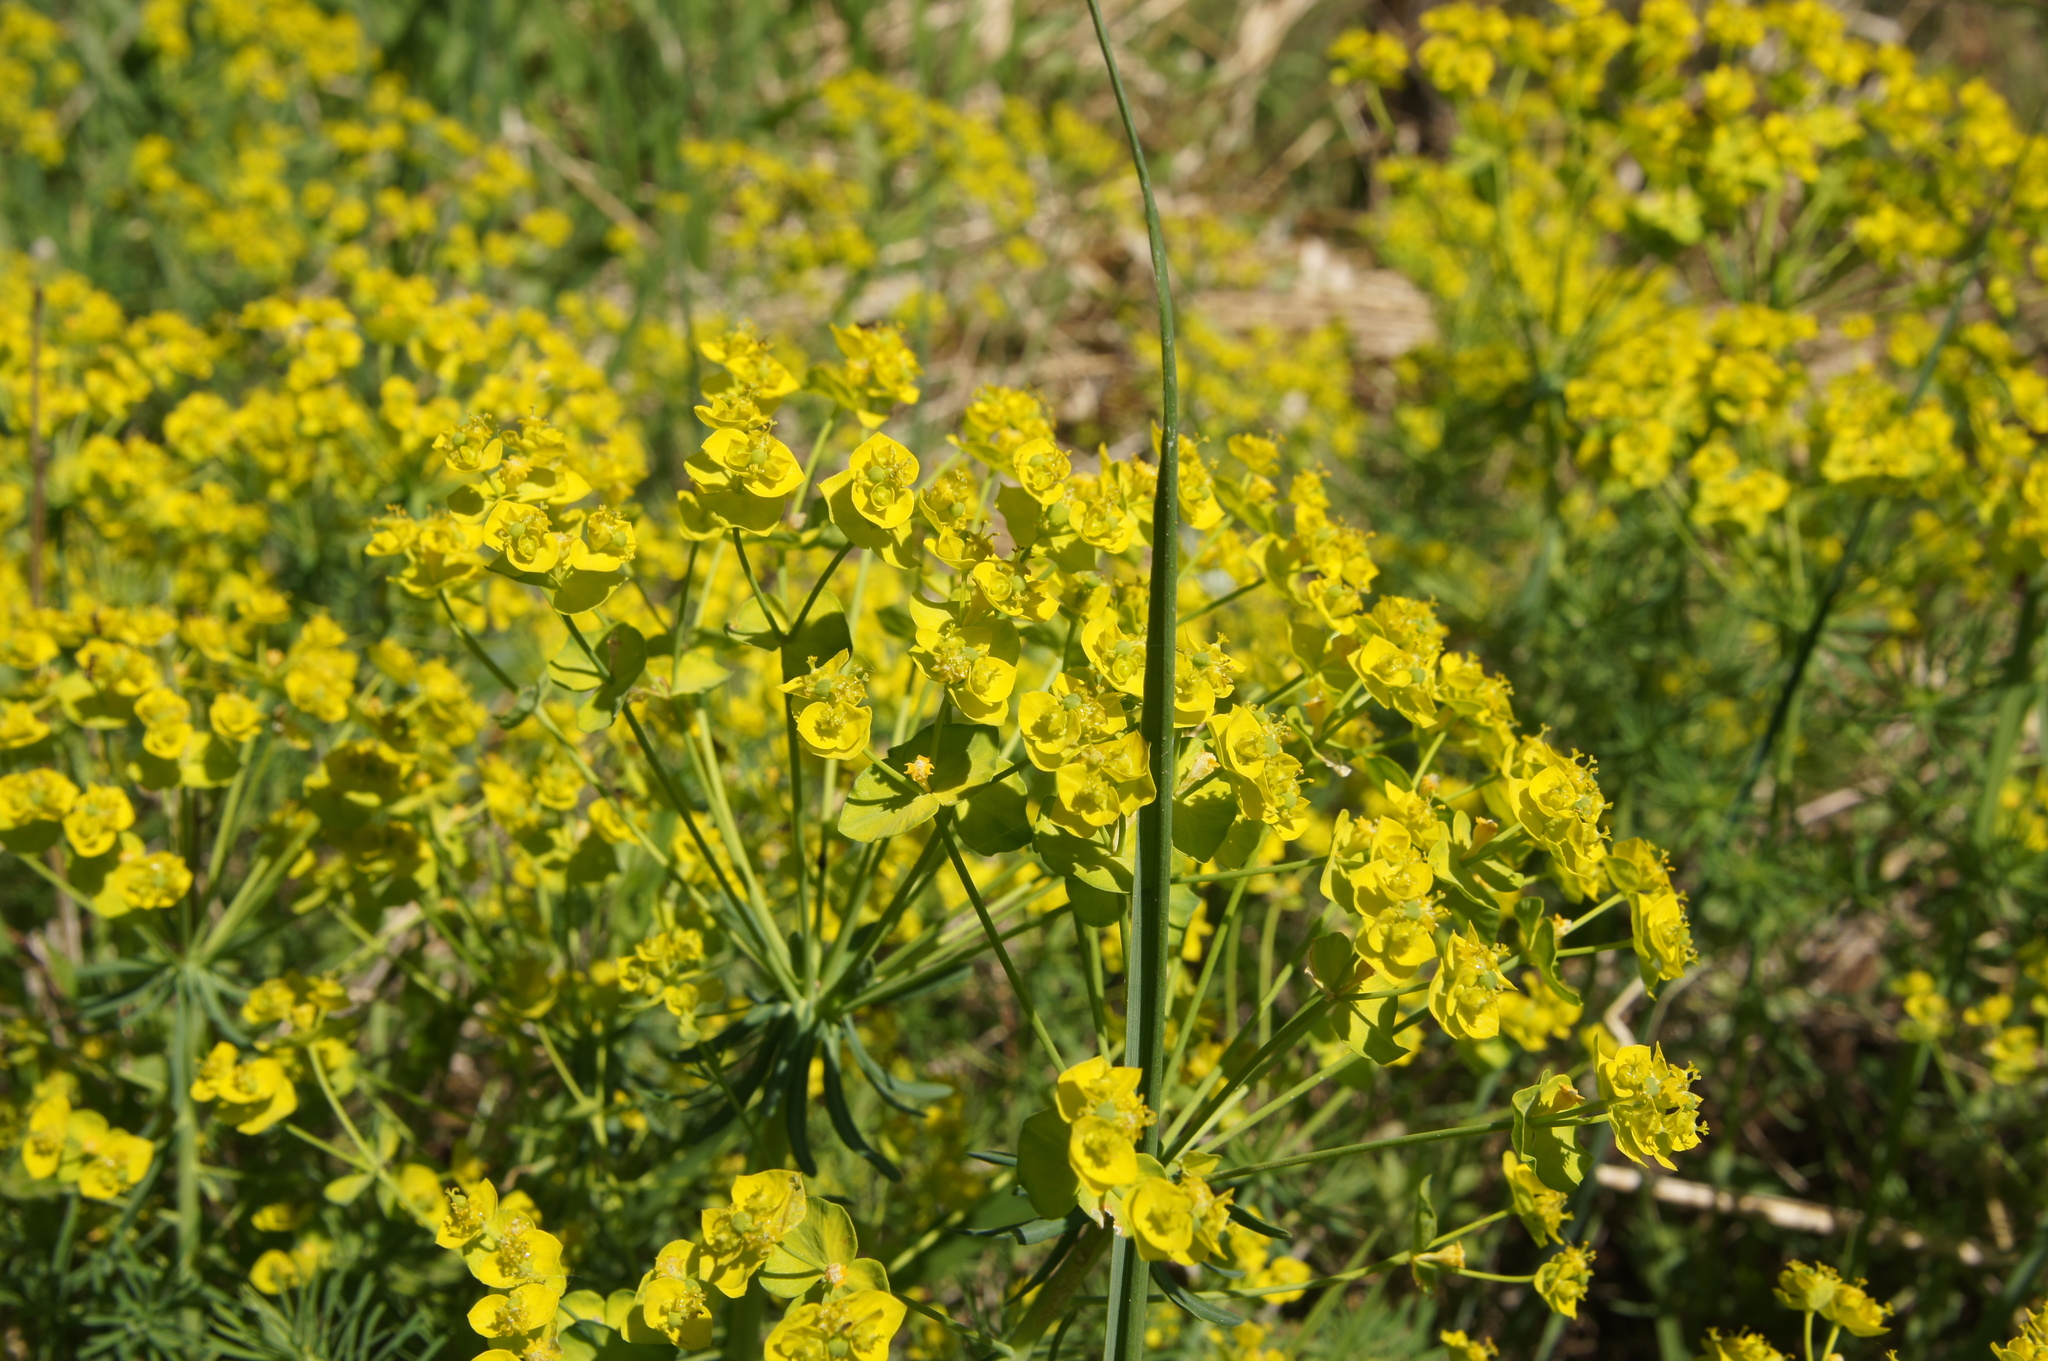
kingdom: Plantae
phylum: Tracheophyta
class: Magnoliopsida
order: Malpighiales
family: Euphorbiaceae
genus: Euphorbia
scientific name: Euphorbia cyparissias
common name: Cypress spurge
